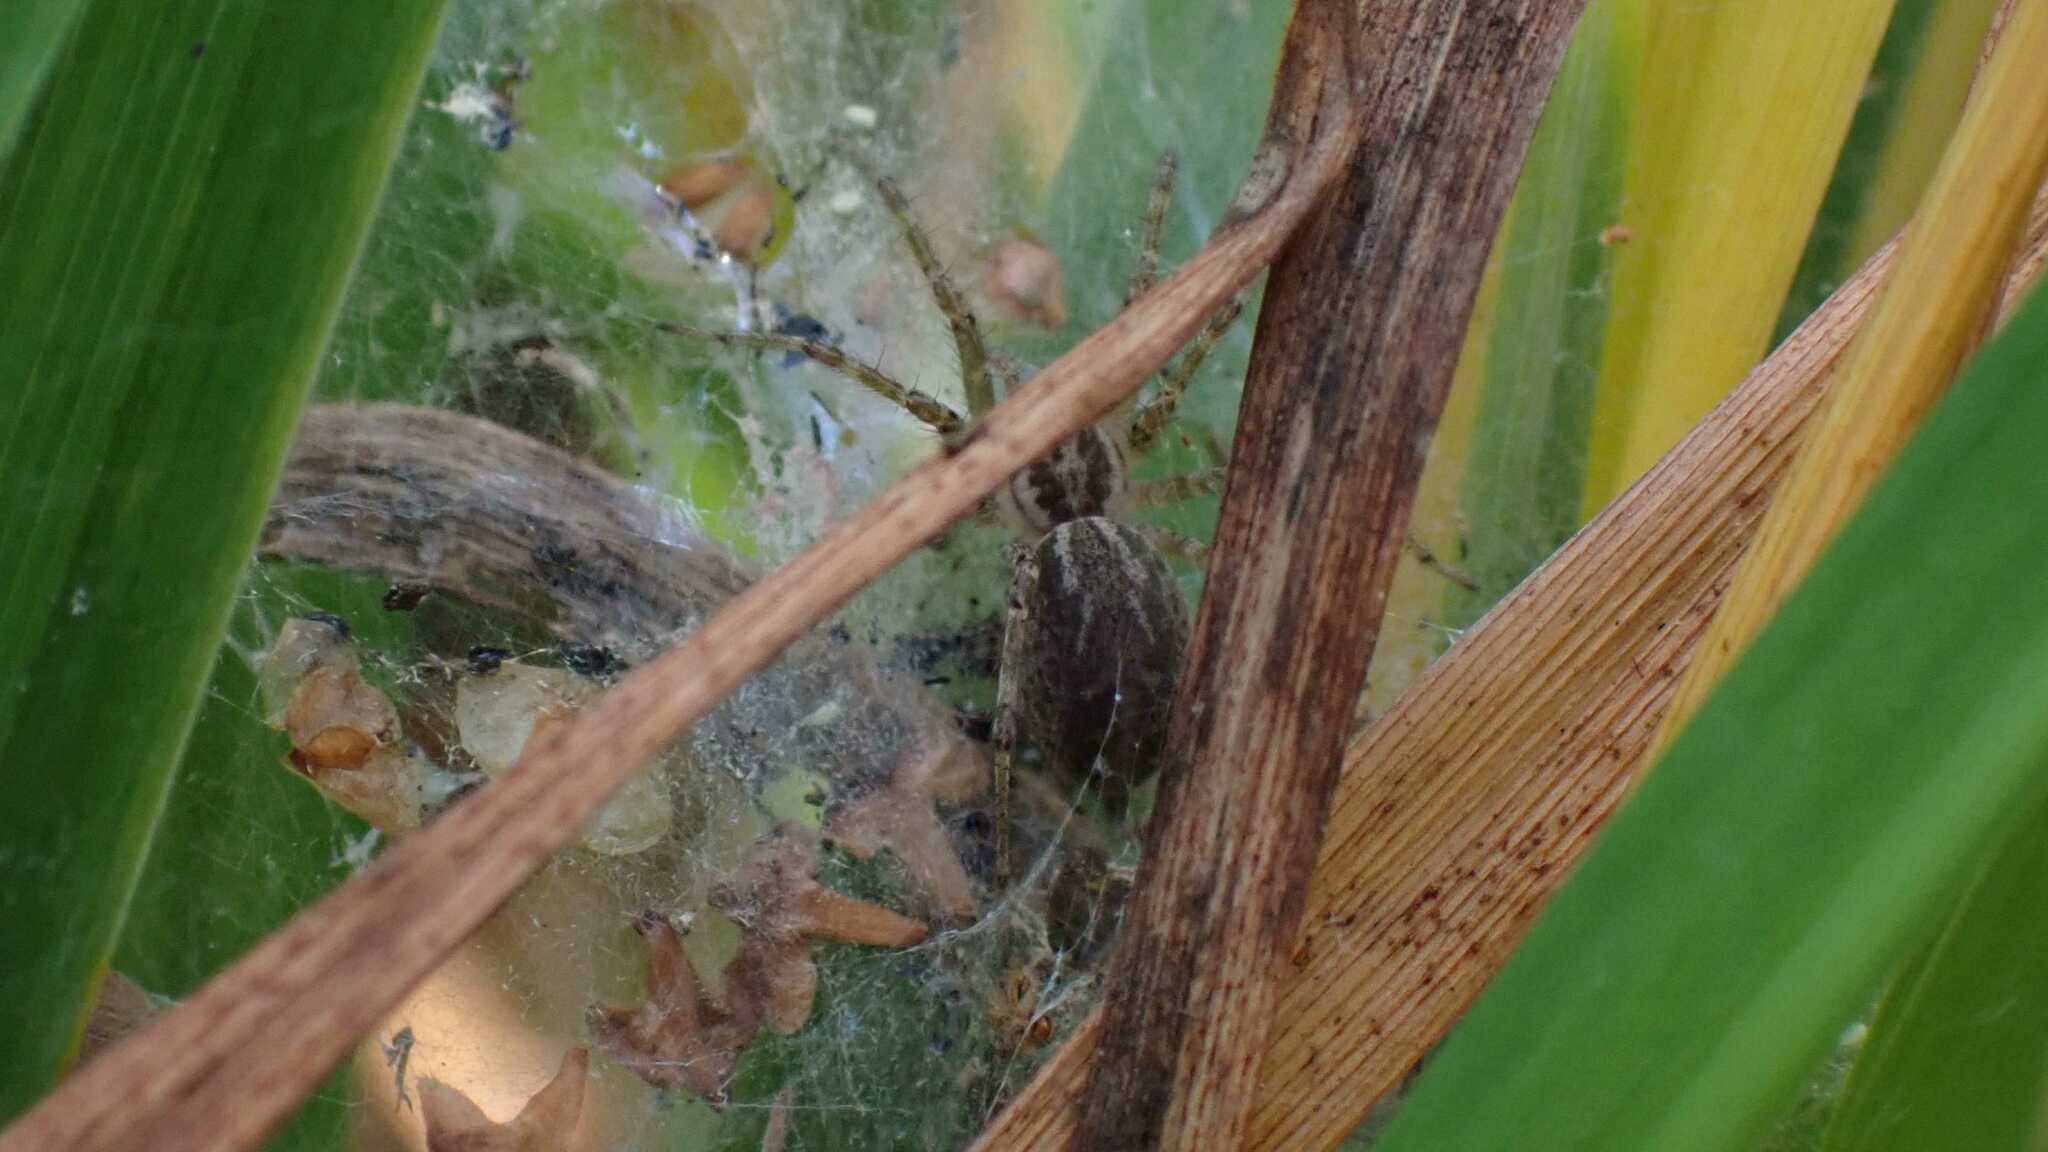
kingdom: Animalia
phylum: Arthropoda
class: Arachnida
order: Araneae
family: Agelenidae
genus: Allagelena
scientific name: Allagelena gracilens
